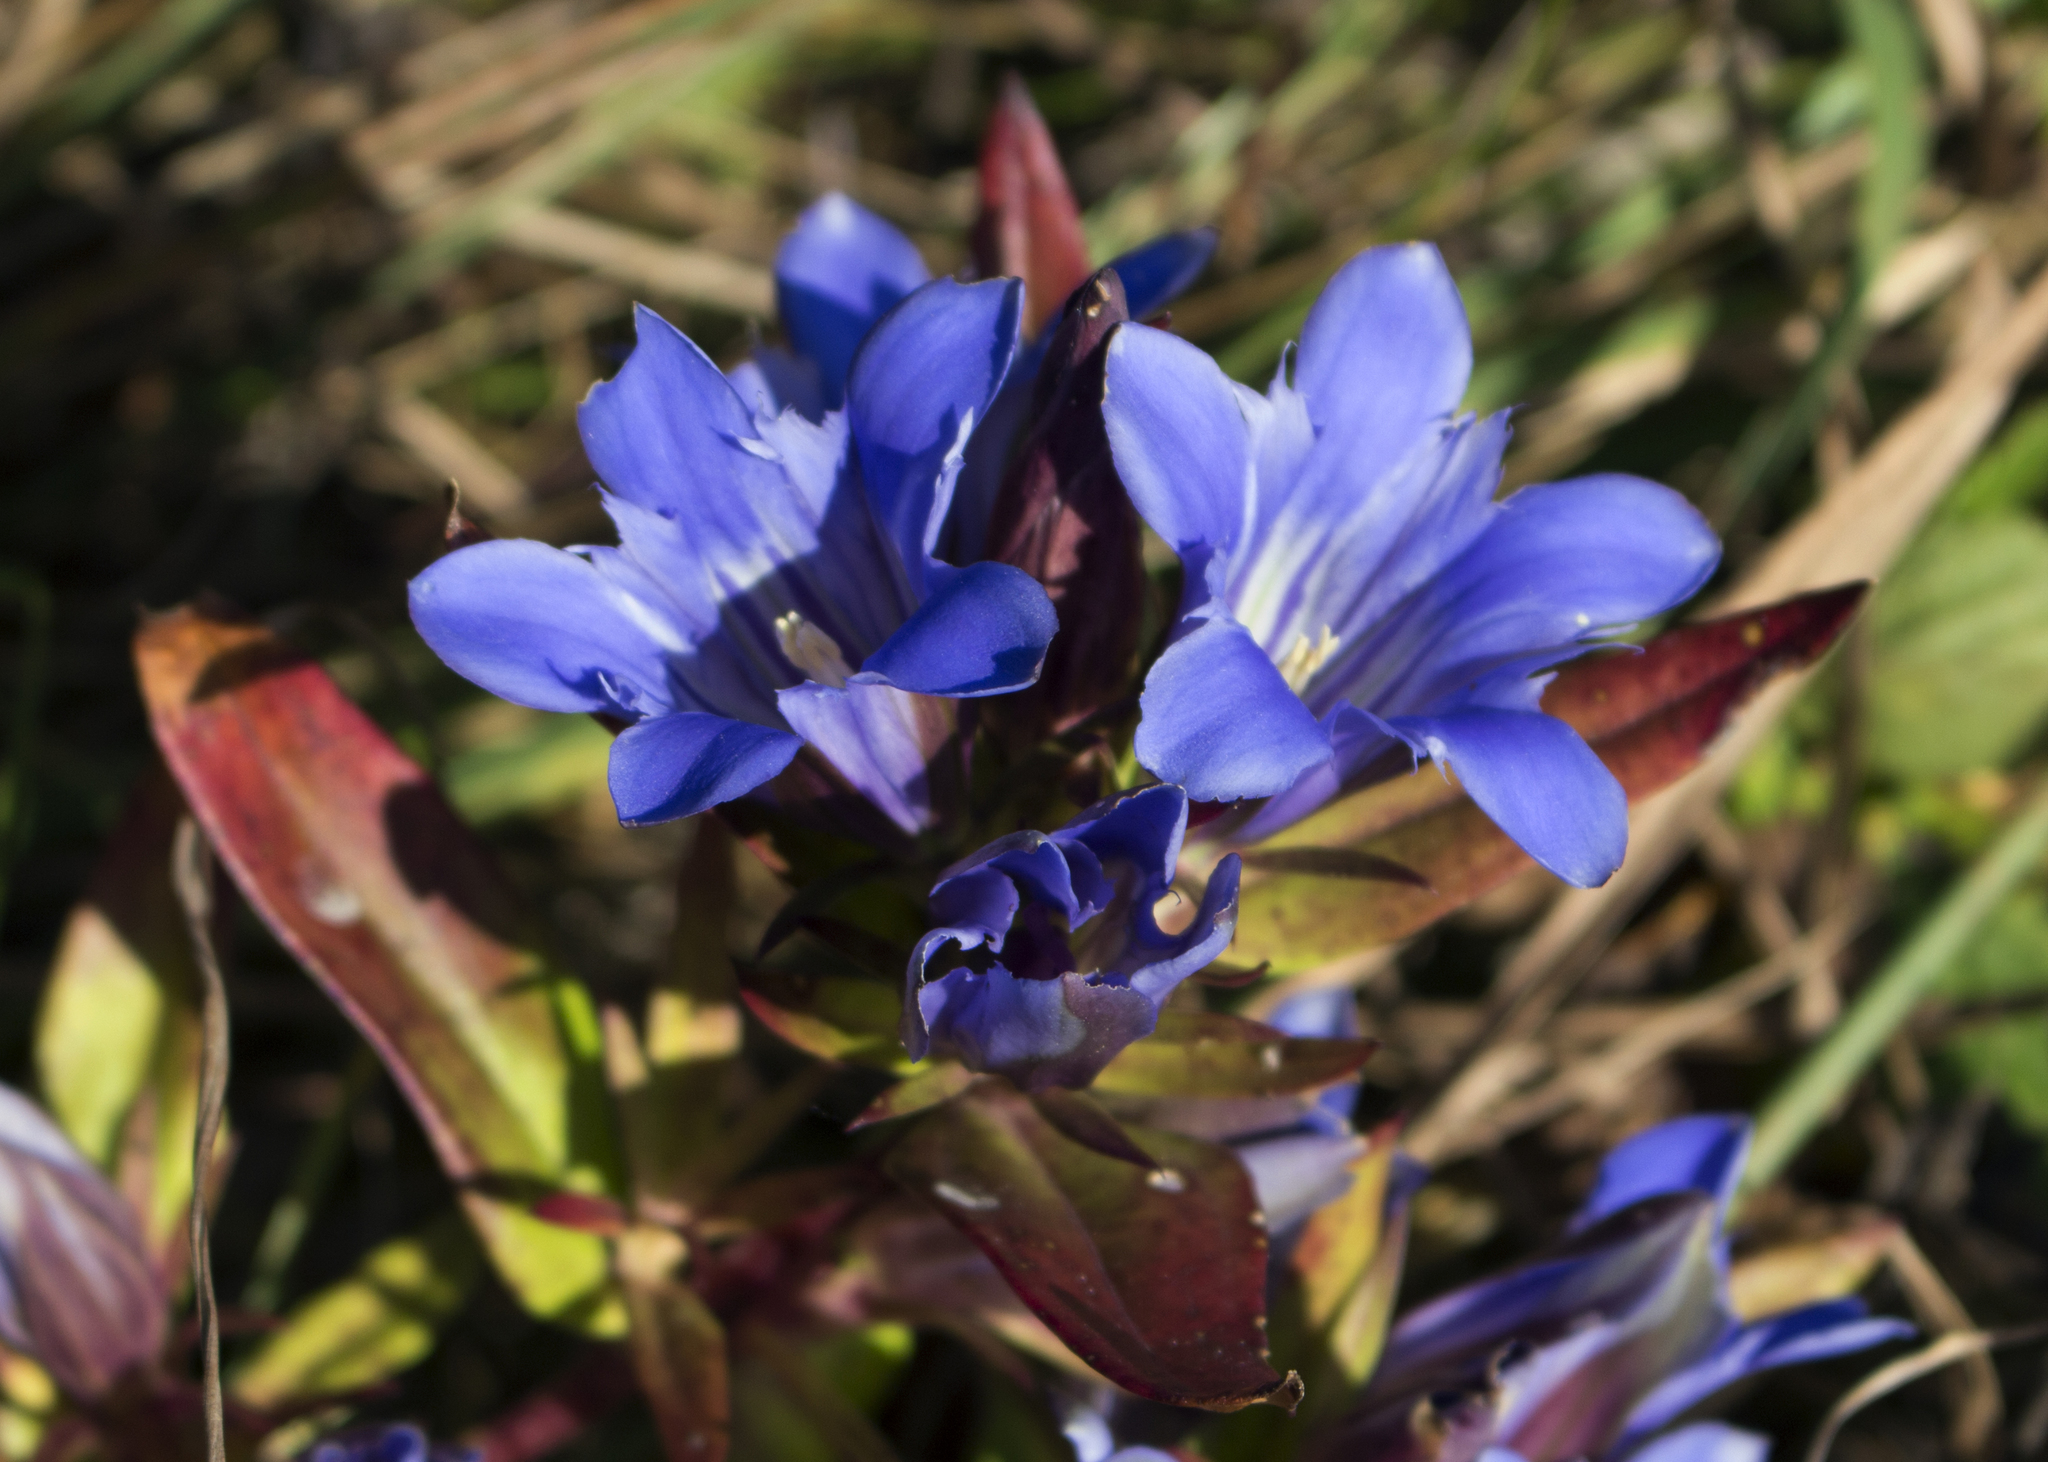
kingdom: Plantae
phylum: Tracheophyta
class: Magnoliopsida
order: Gentianales
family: Gentianaceae
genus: Gentiana
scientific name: Gentiana puberulenta
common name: Downy gentian
